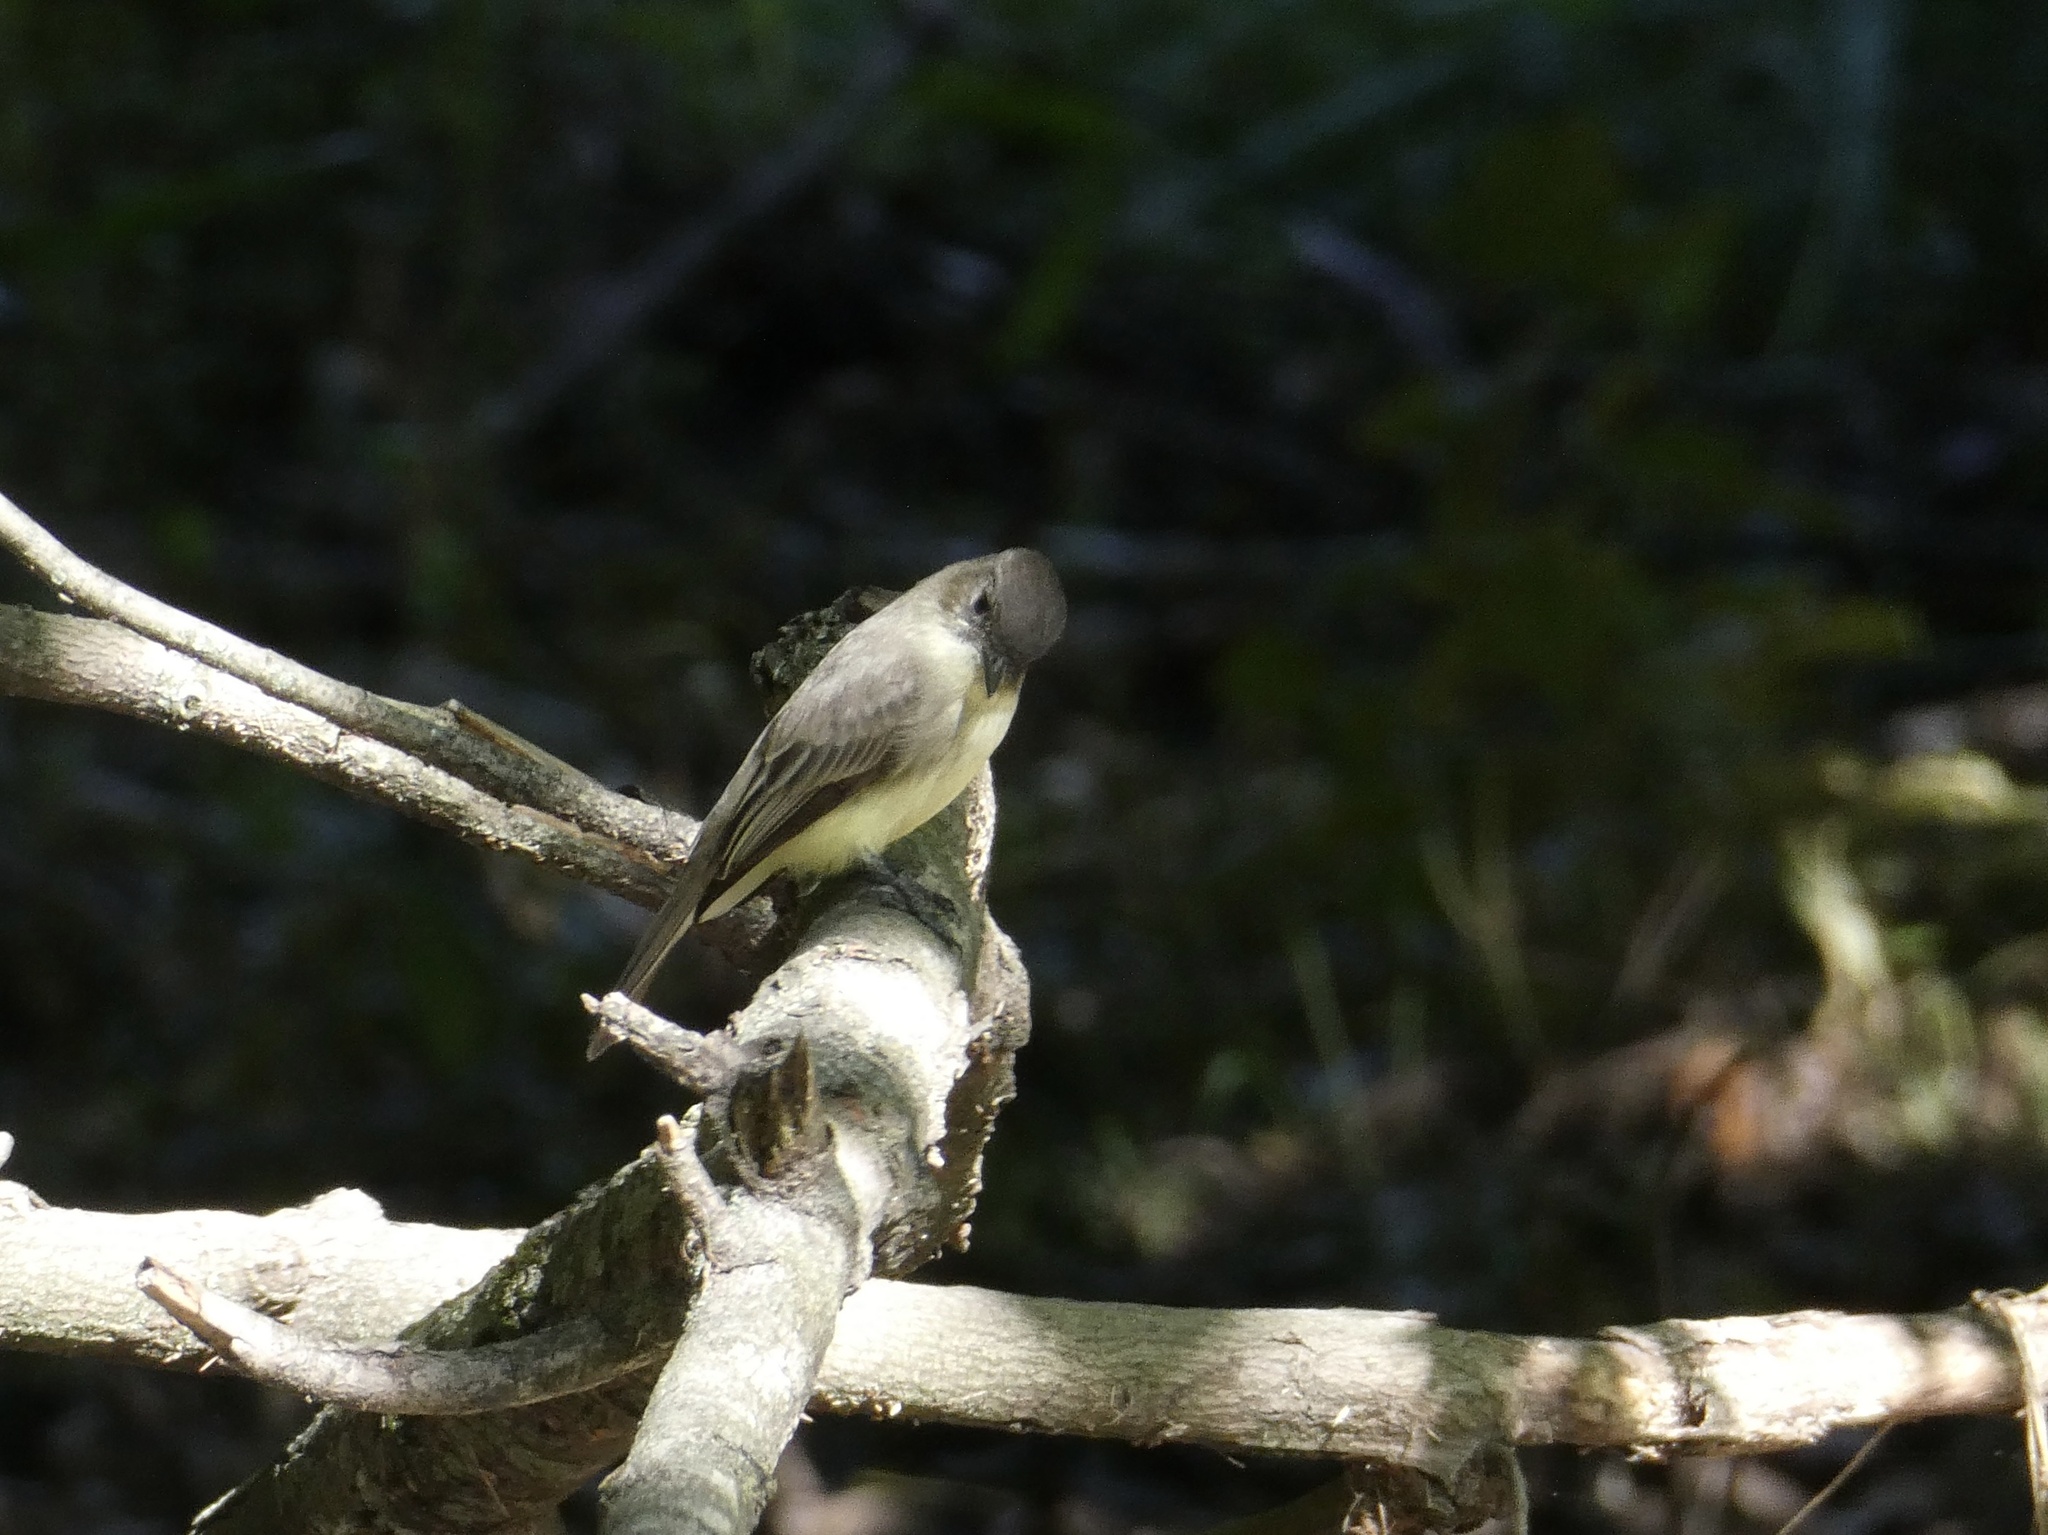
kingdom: Animalia
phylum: Chordata
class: Aves
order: Passeriformes
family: Tyrannidae
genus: Sayornis
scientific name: Sayornis phoebe
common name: Eastern phoebe
